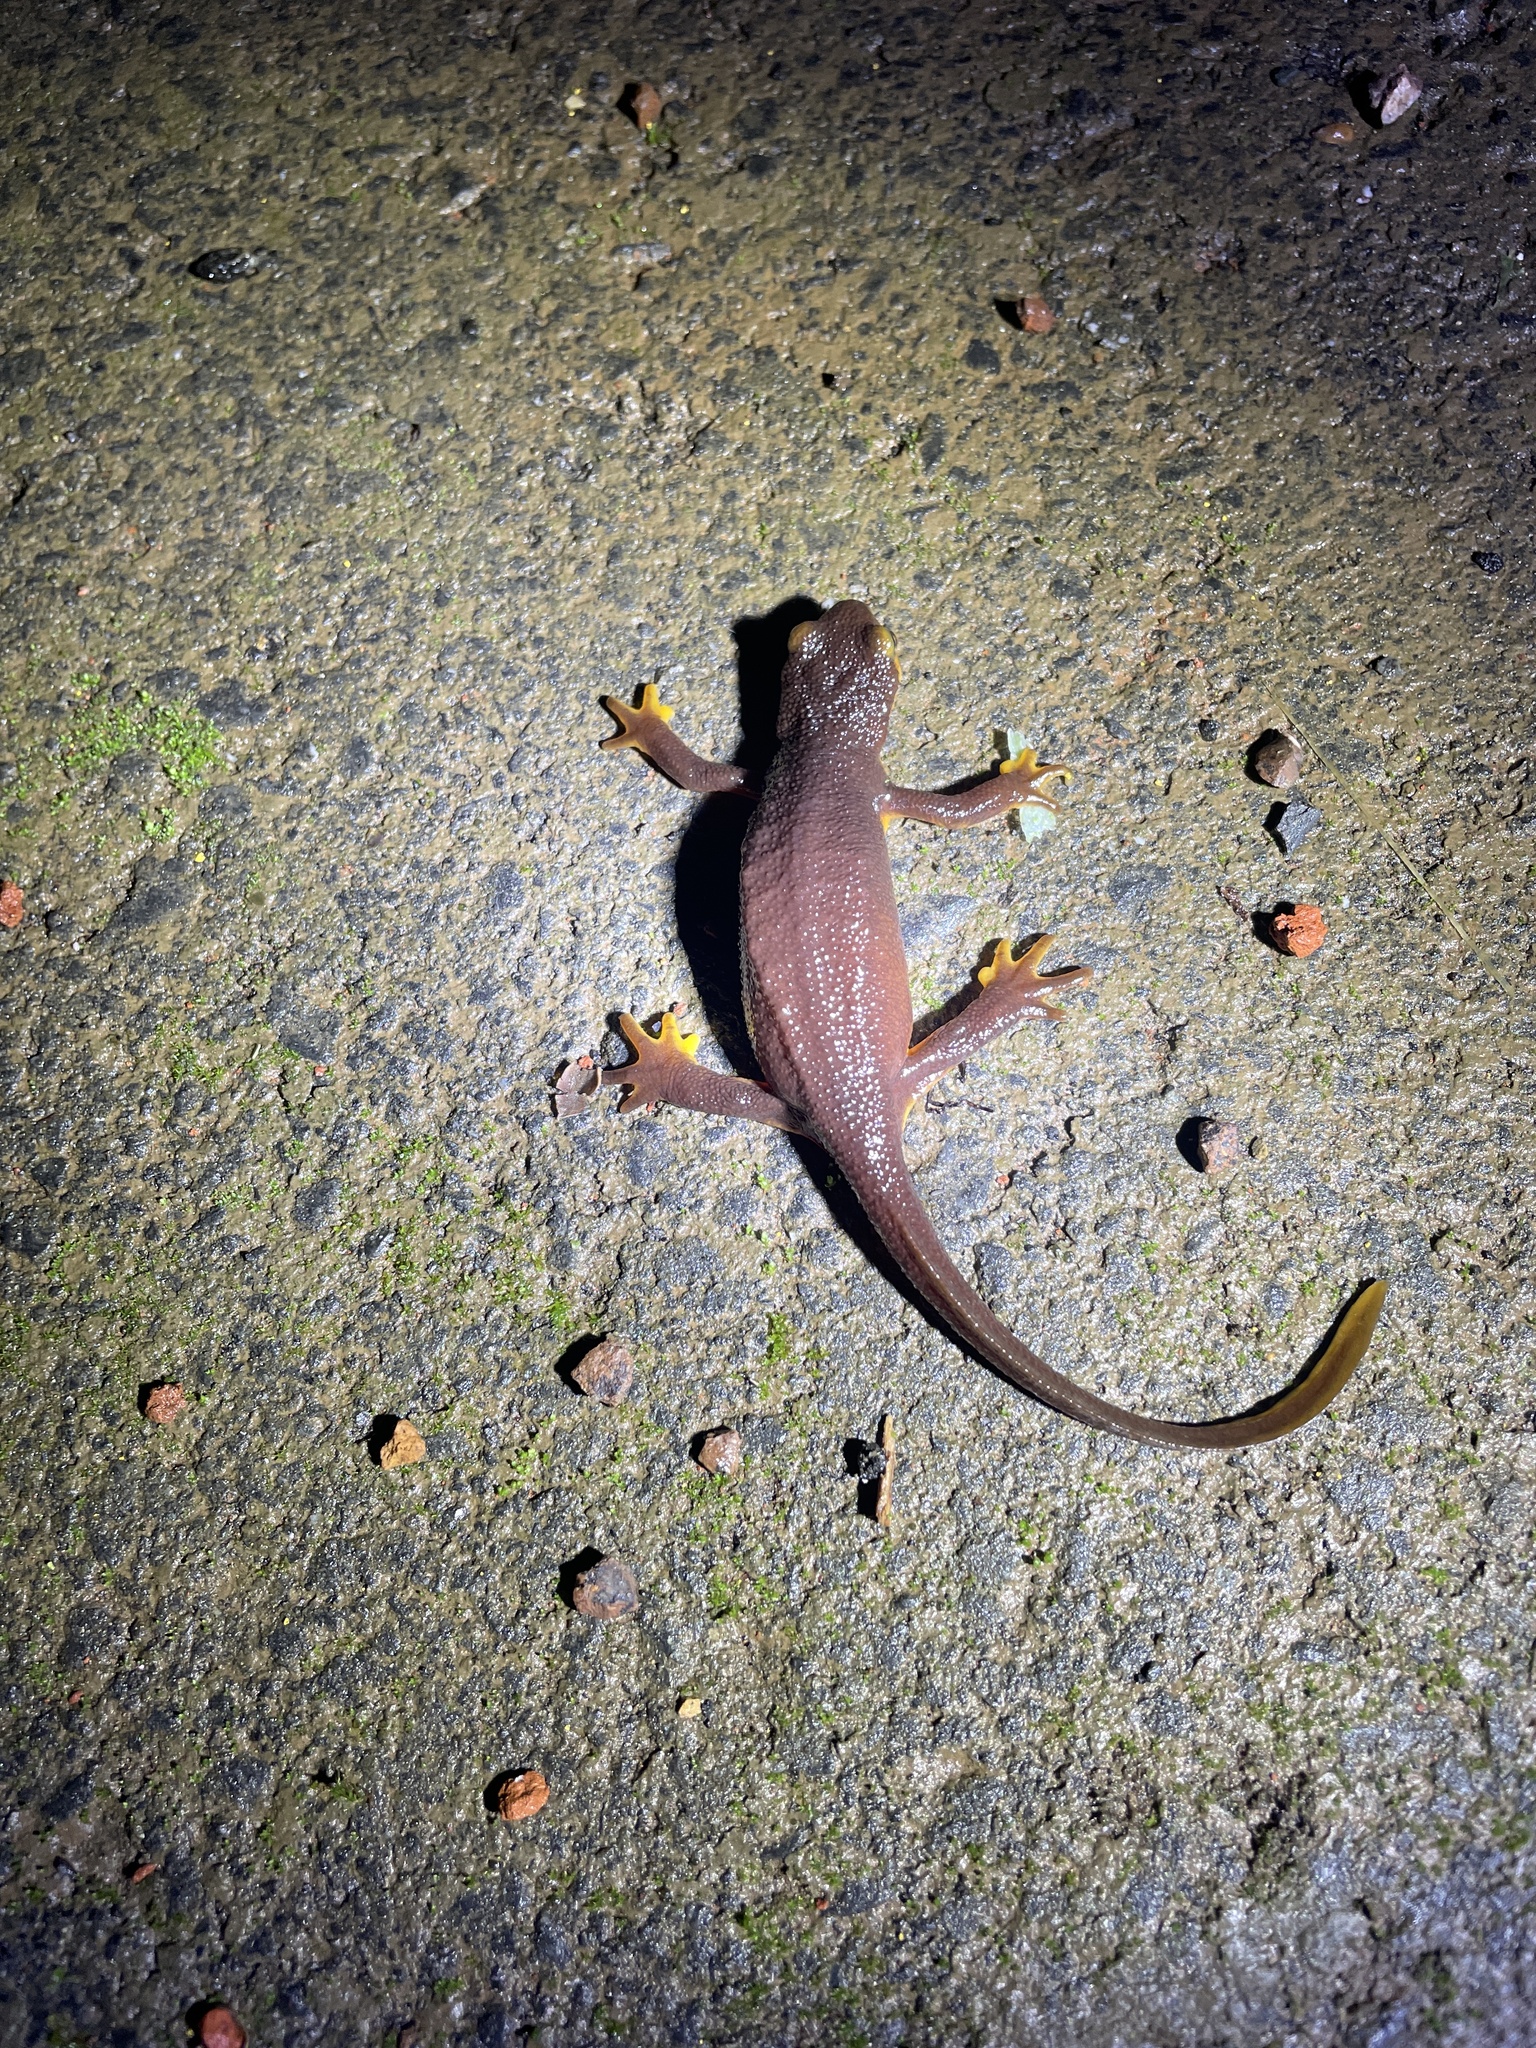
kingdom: Animalia
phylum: Chordata
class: Amphibia
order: Caudata
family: Salamandridae
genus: Taricha
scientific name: Taricha torosa
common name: California newt
